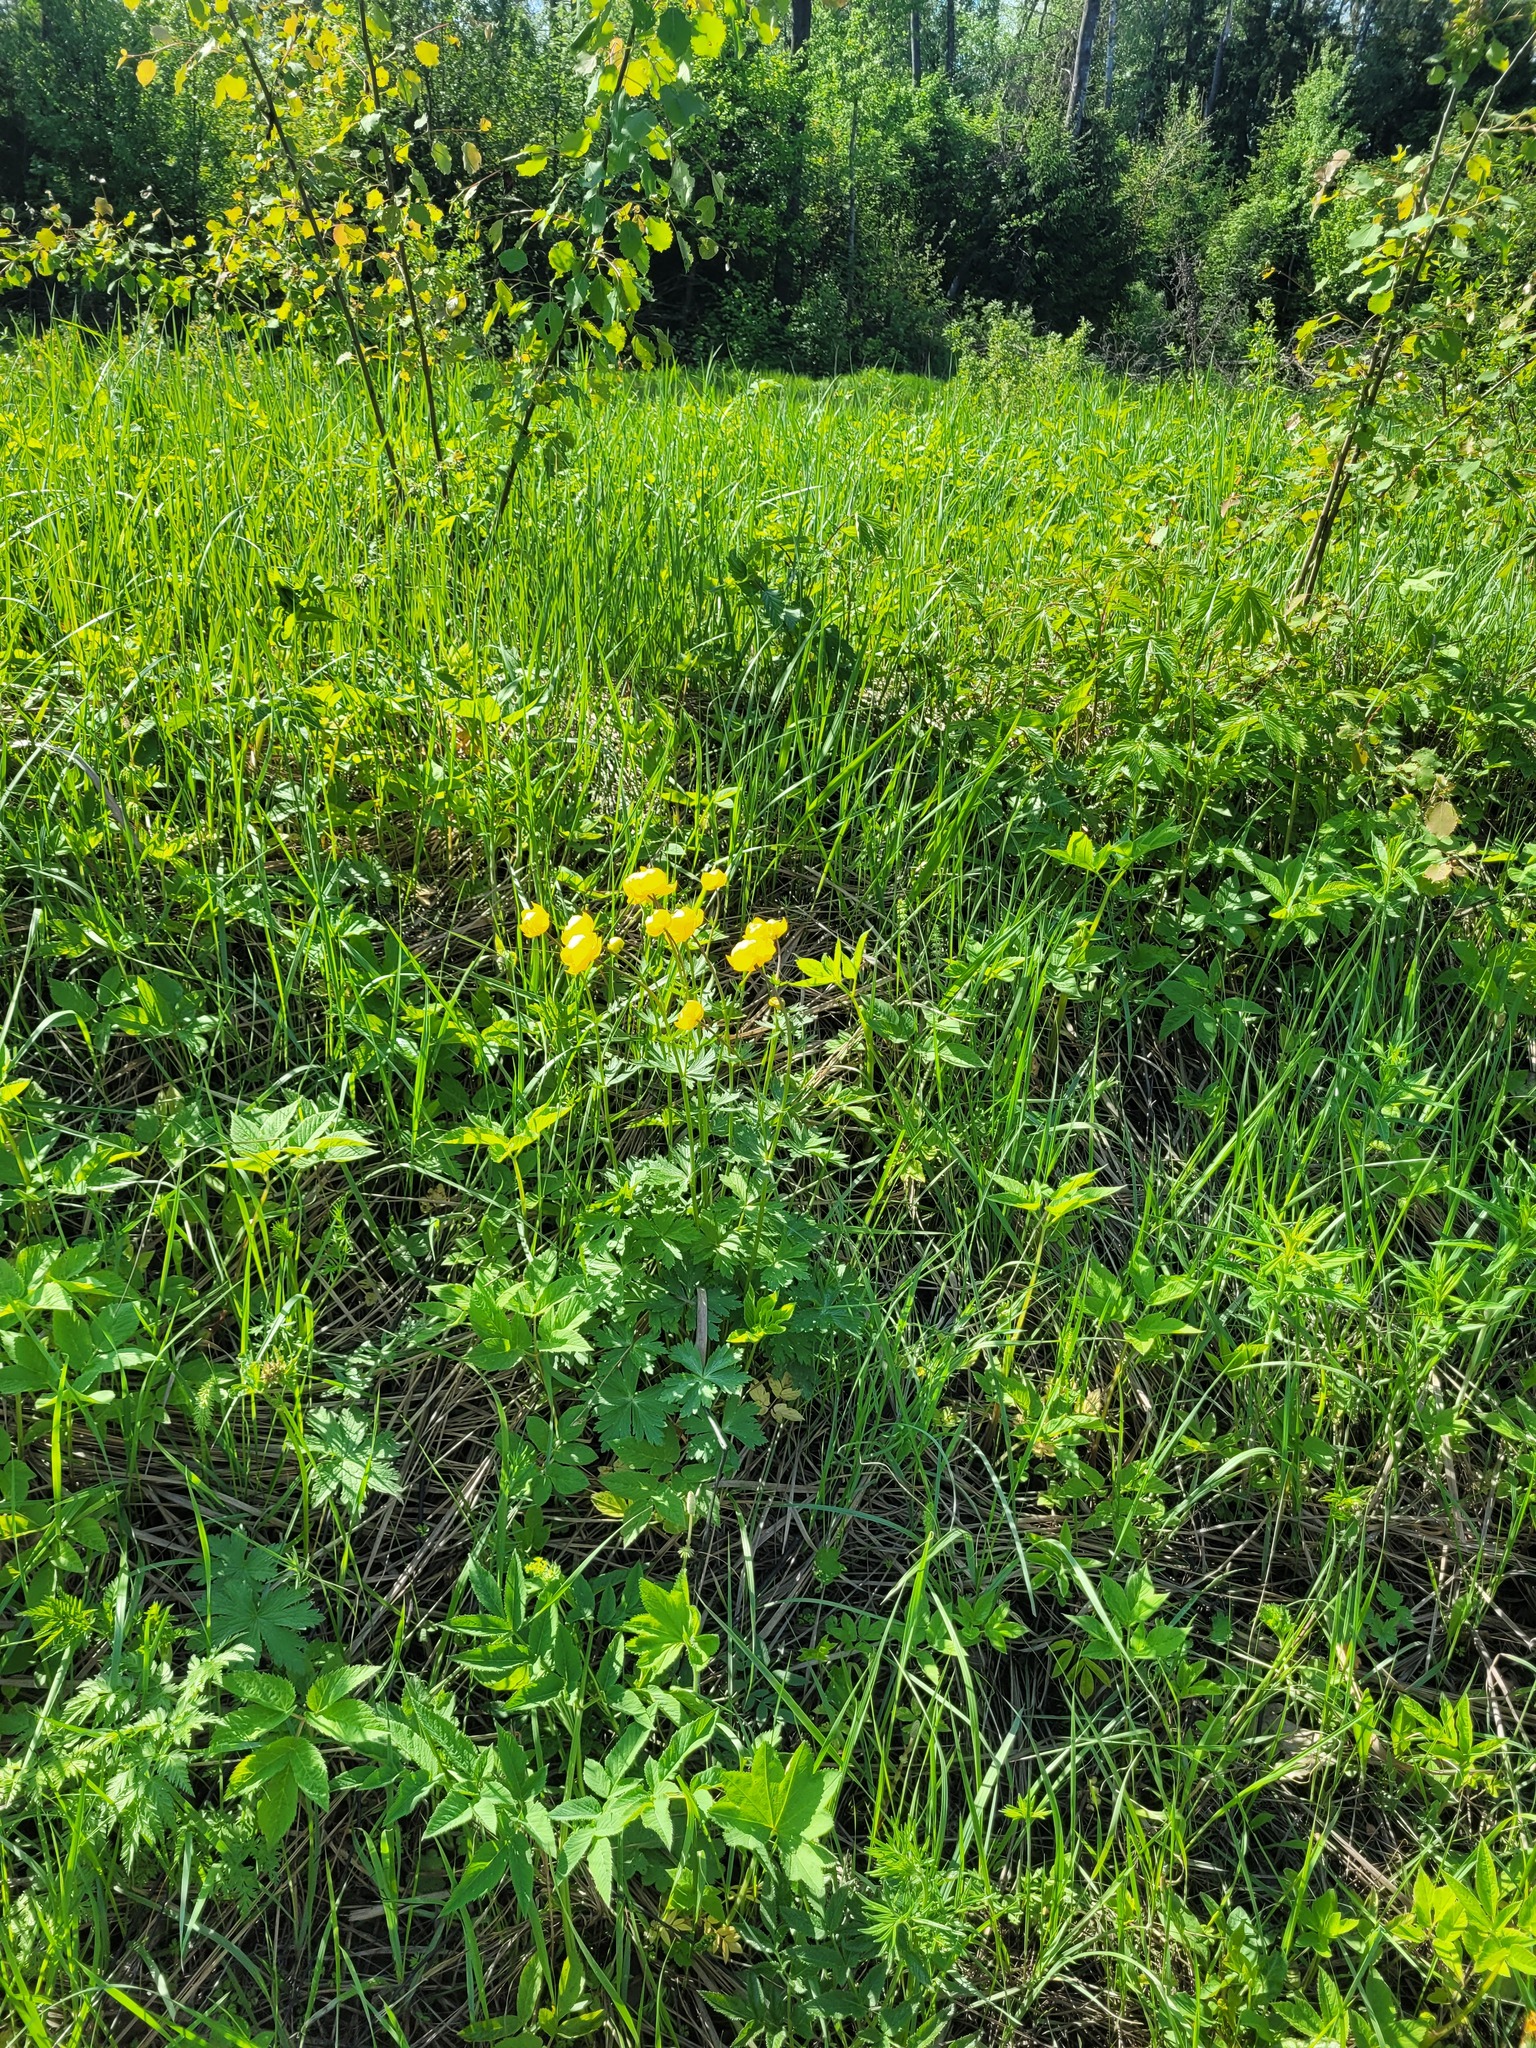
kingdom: Plantae
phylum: Tracheophyta
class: Magnoliopsida
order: Ranunculales
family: Ranunculaceae
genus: Trollius
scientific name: Trollius europaeus
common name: European globeflower
